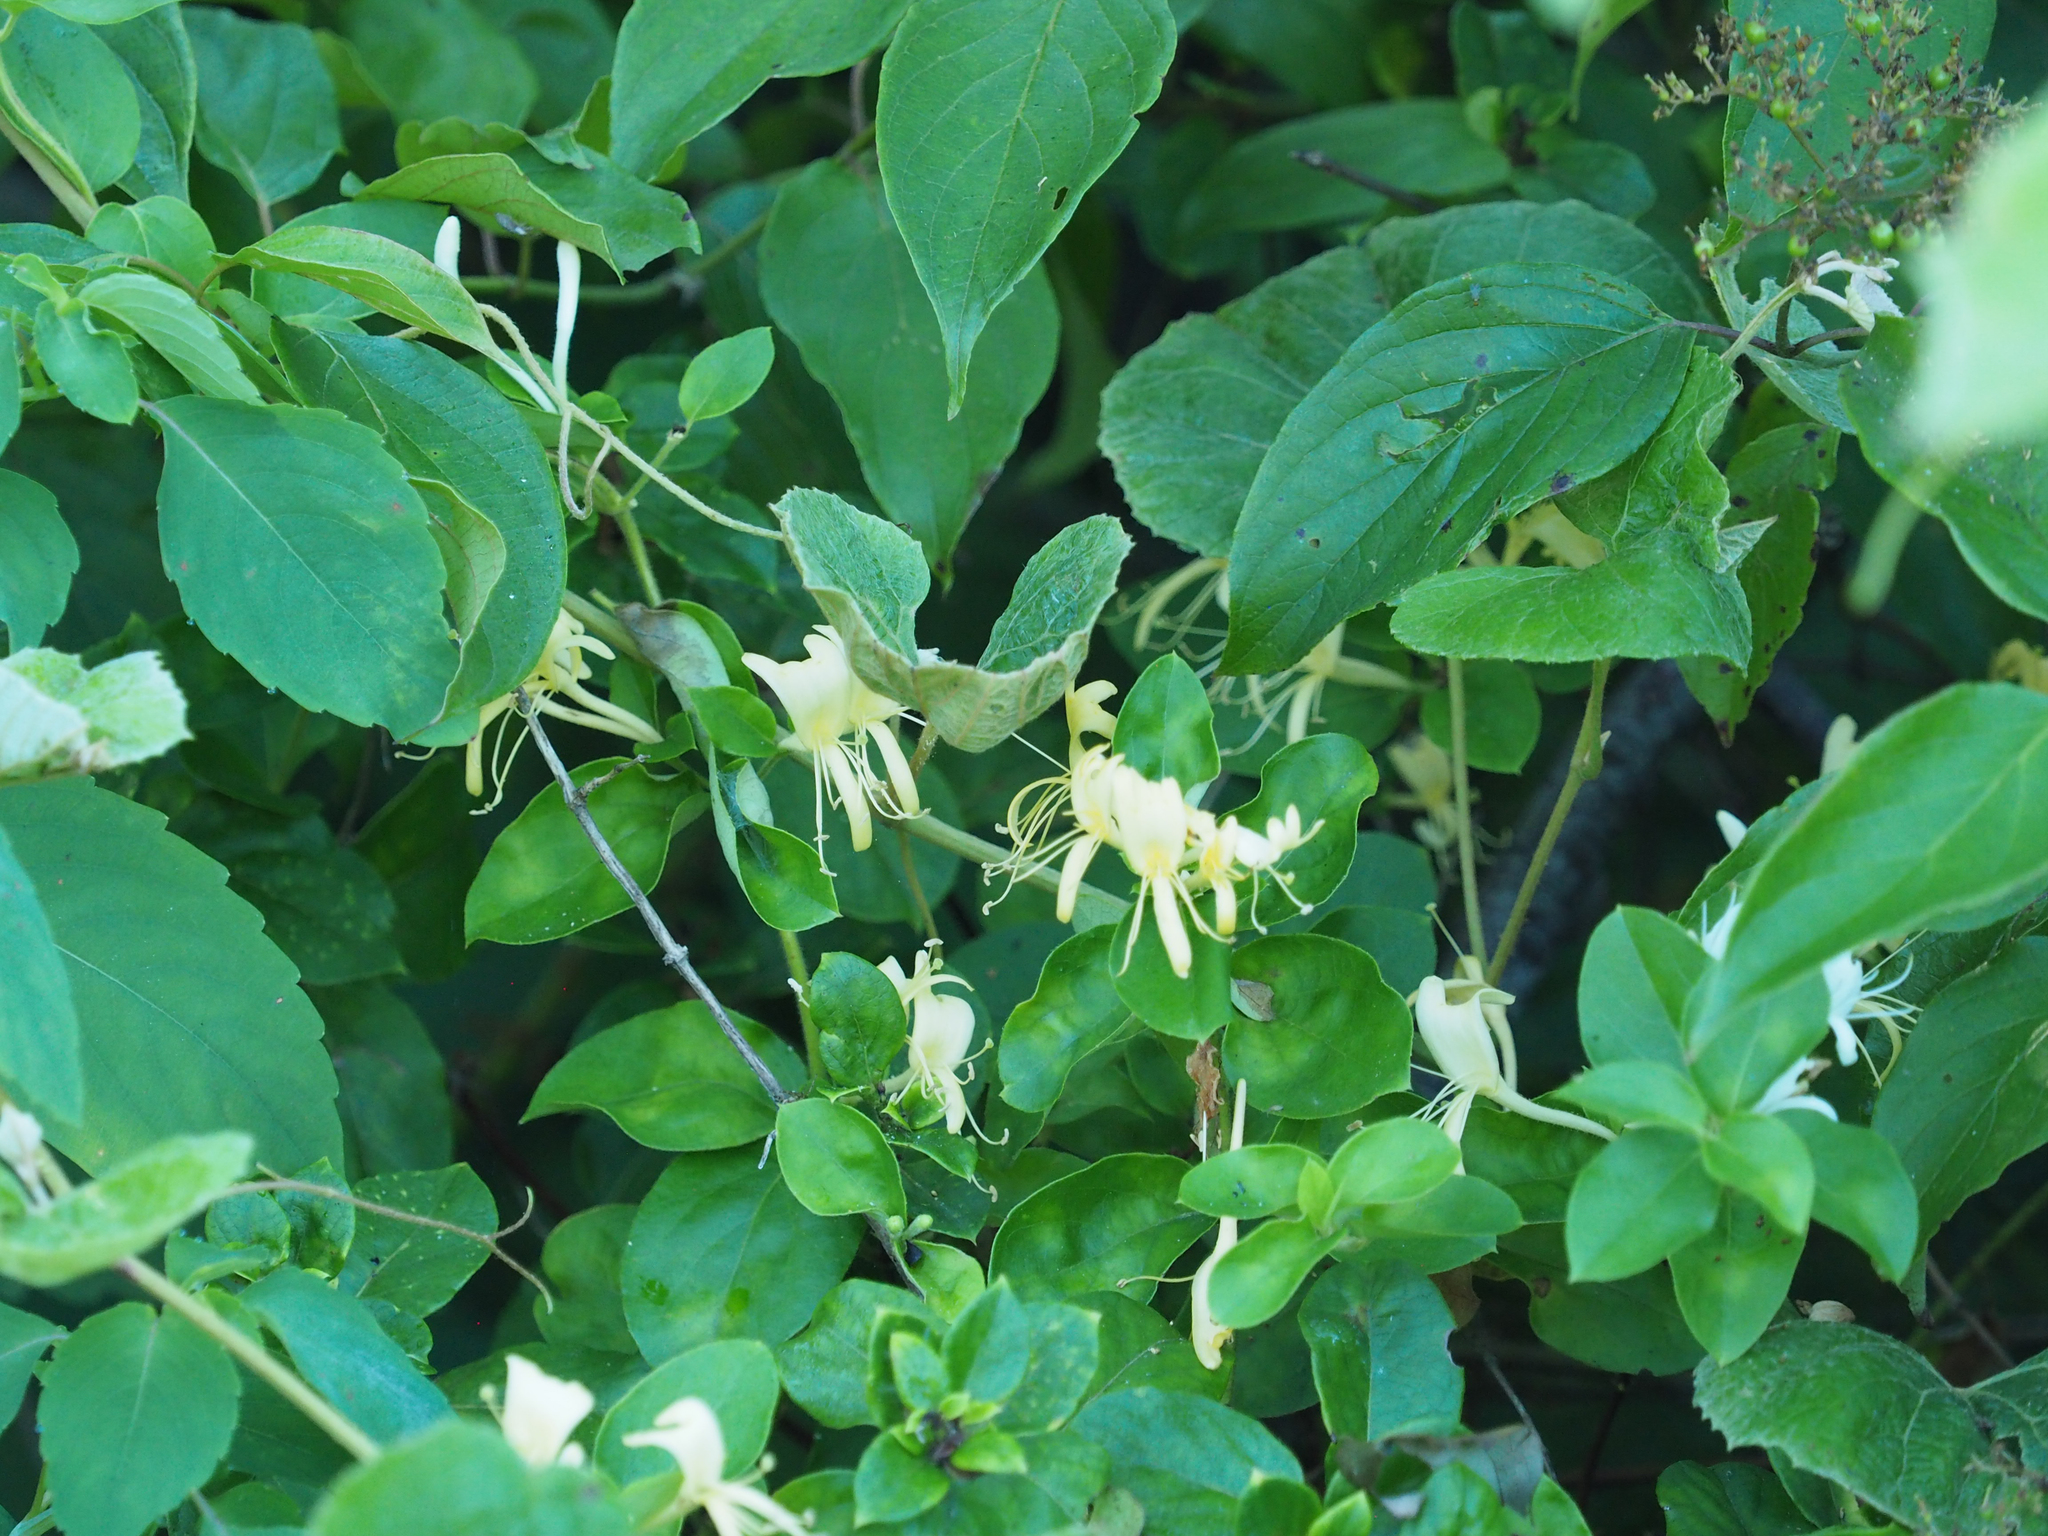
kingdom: Plantae
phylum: Tracheophyta
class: Magnoliopsida
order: Dipsacales
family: Caprifoliaceae
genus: Lonicera
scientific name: Lonicera japonica
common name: Japanese honeysuckle
